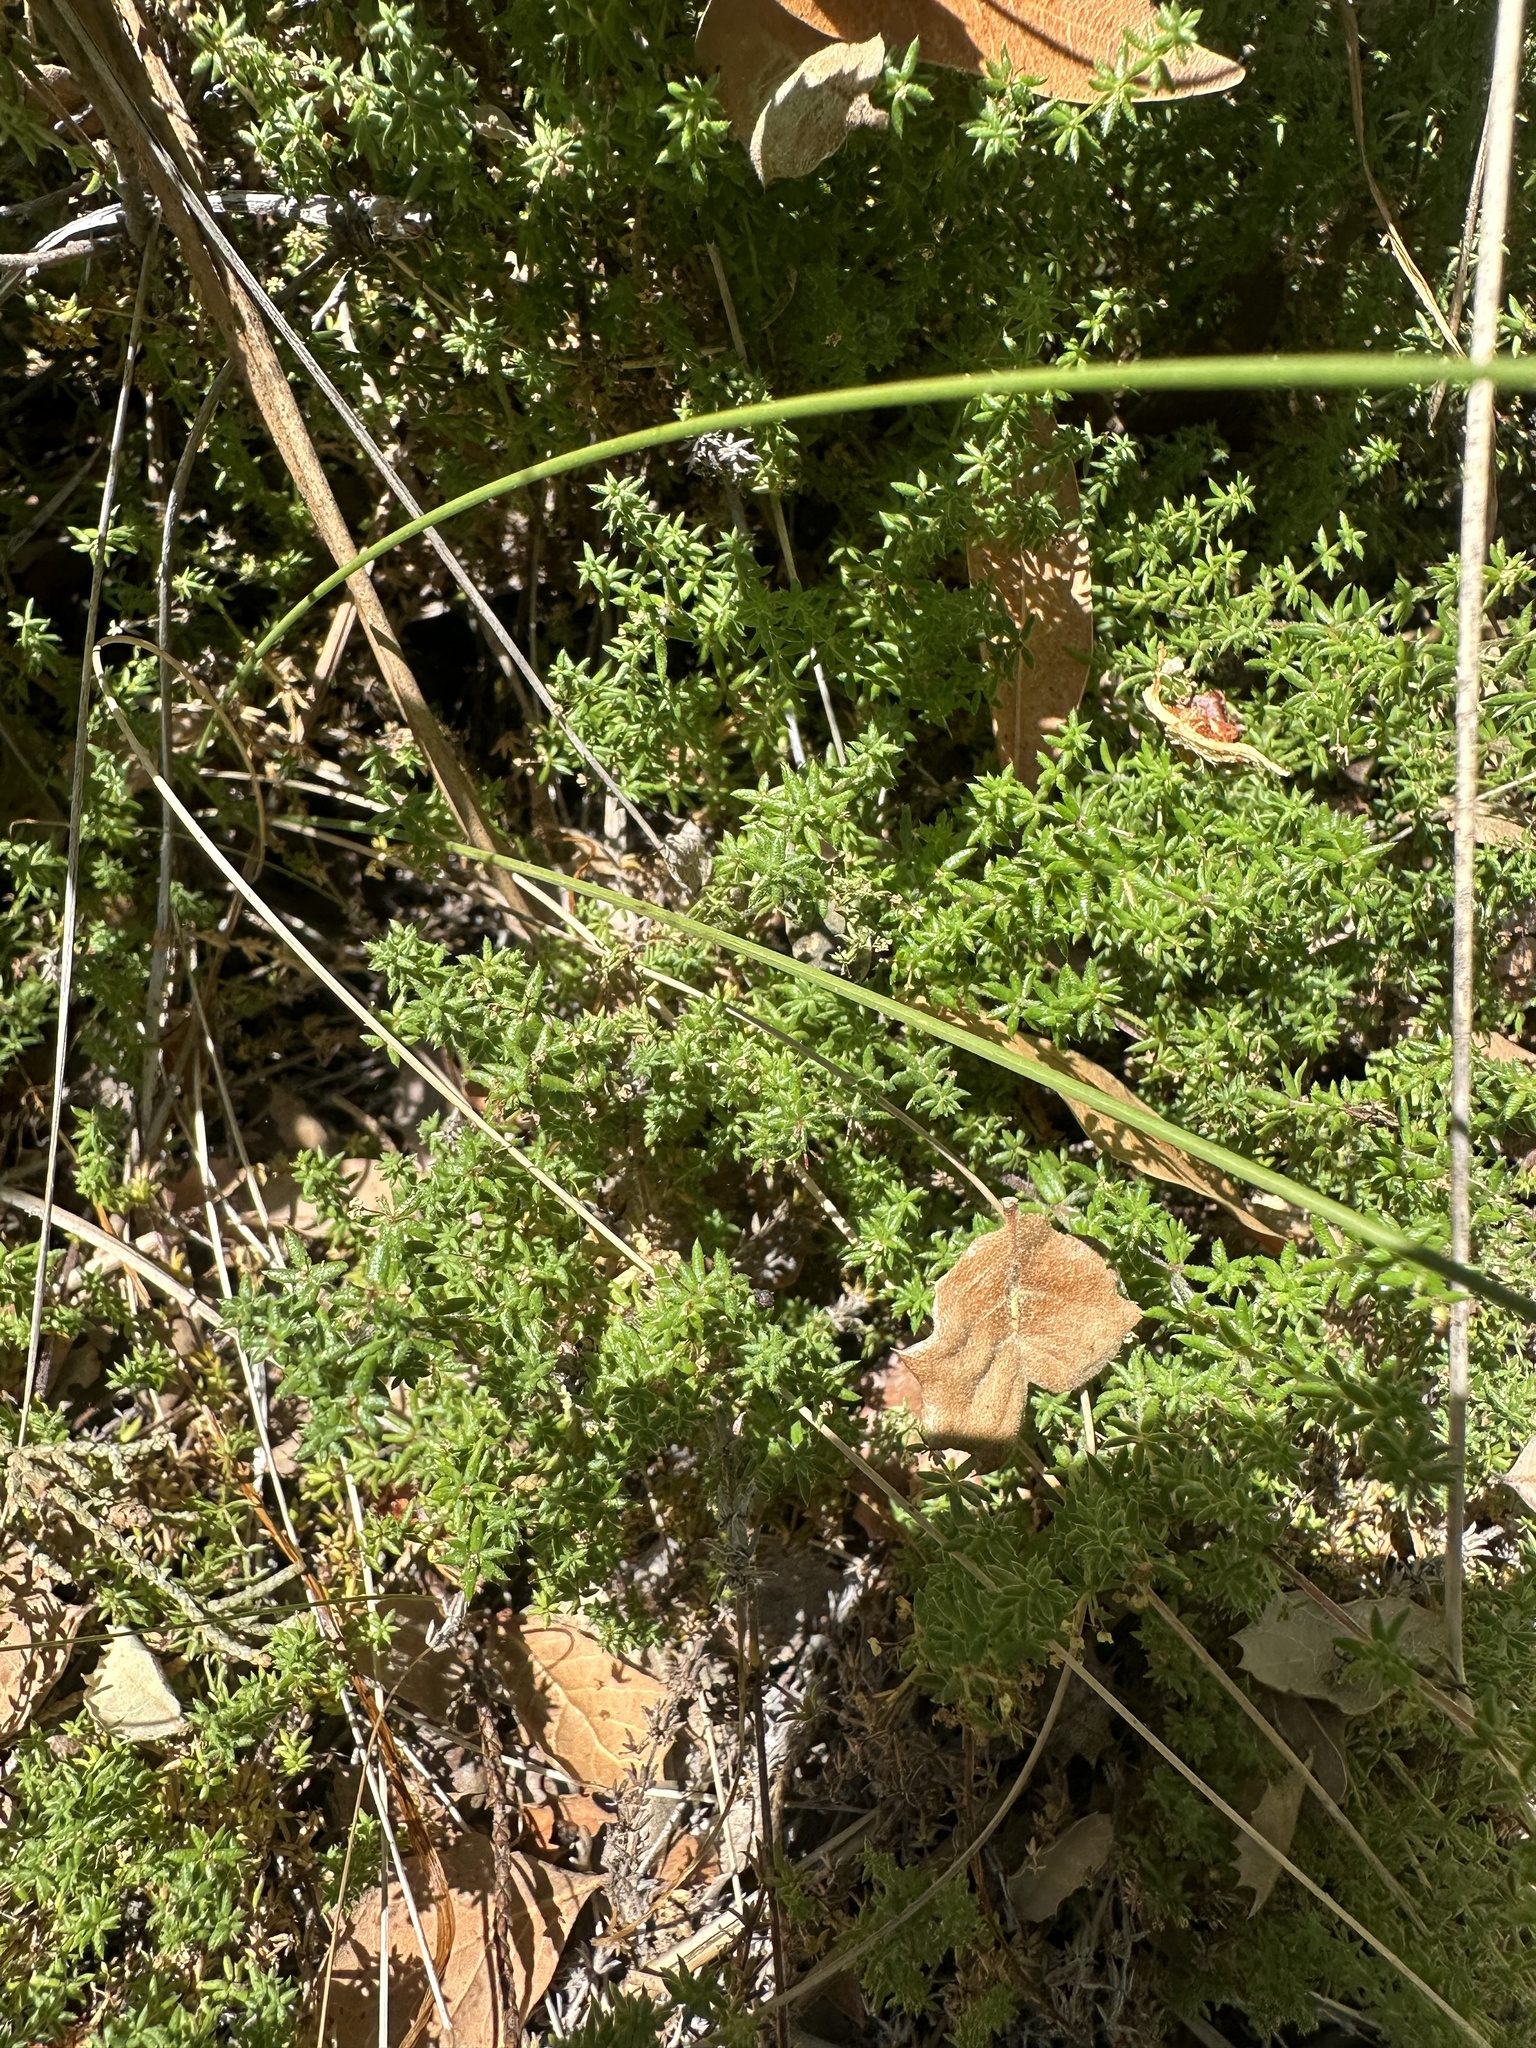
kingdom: Plantae
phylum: Tracheophyta
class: Magnoliopsida
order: Gentianales
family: Rubiaceae
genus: Galium
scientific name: Galium hardhamiae
